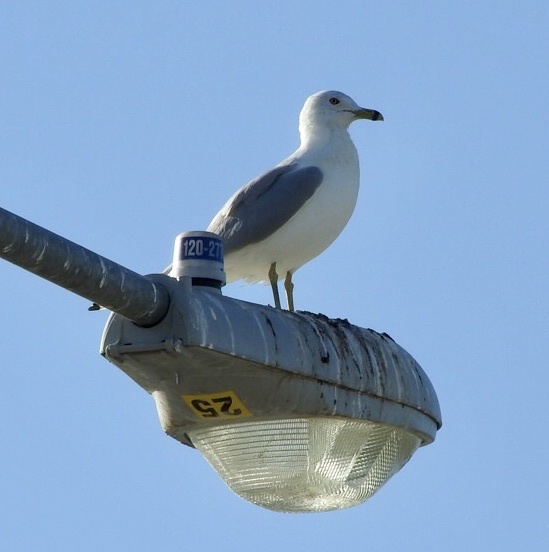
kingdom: Animalia
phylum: Chordata
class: Aves
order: Charadriiformes
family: Laridae
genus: Larus
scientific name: Larus delawarensis
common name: Ring-billed gull
